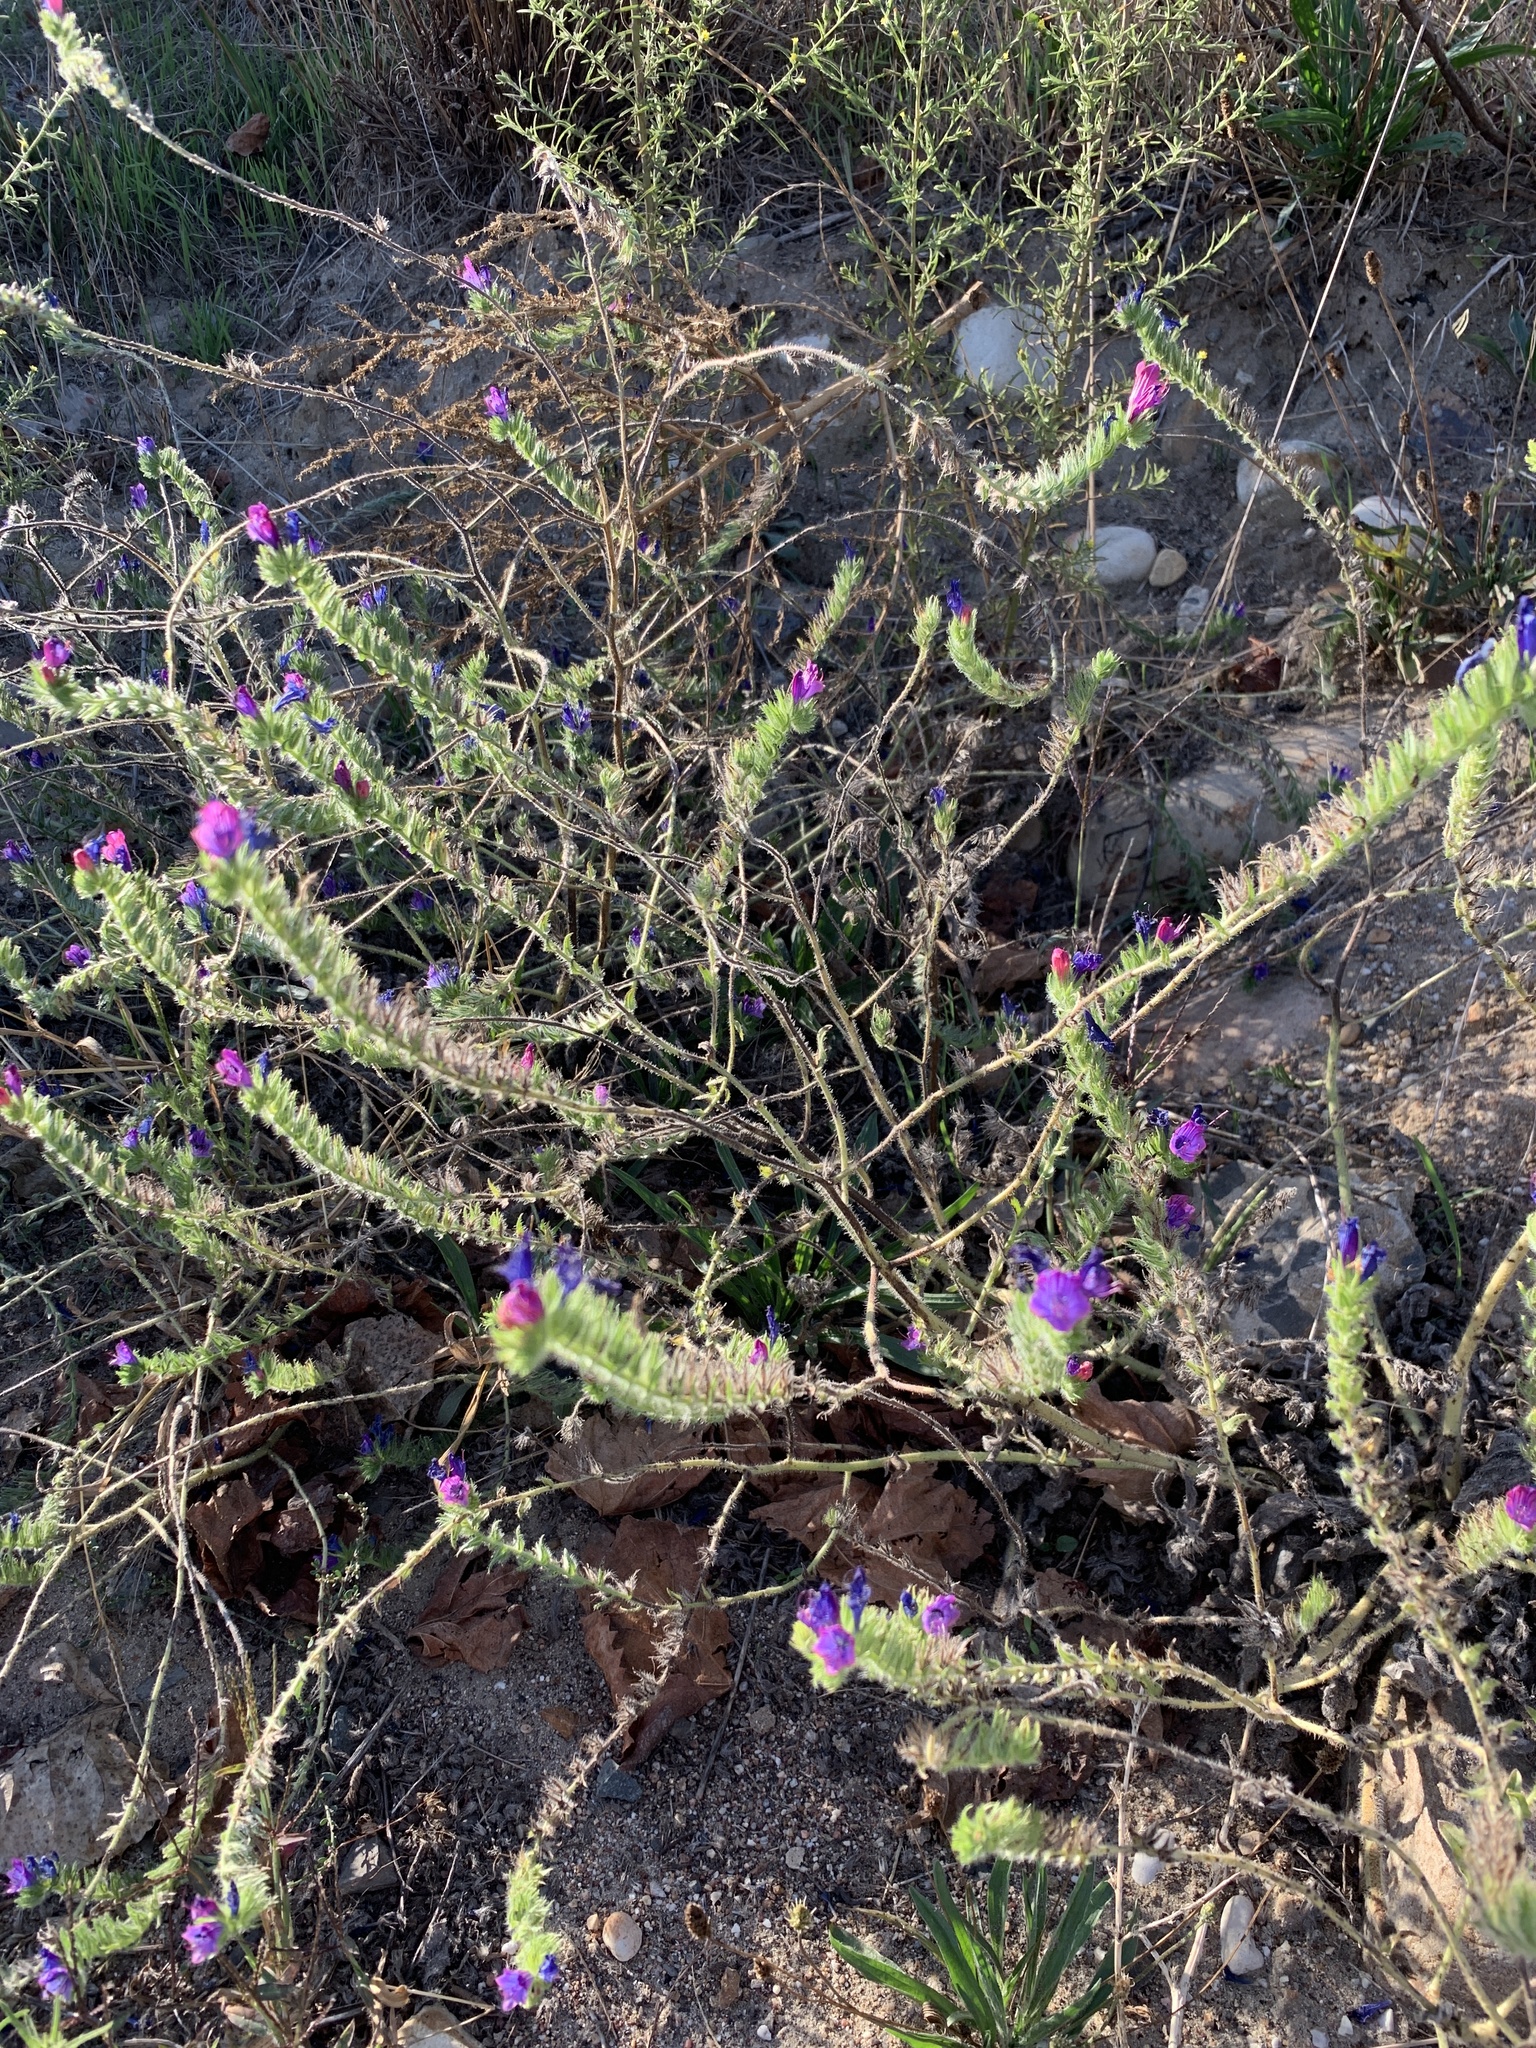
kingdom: Plantae
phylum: Tracheophyta
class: Magnoliopsida
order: Boraginales
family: Boraginaceae
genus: Echium
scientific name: Echium plantagineum
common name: Purple viper's-bugloss
